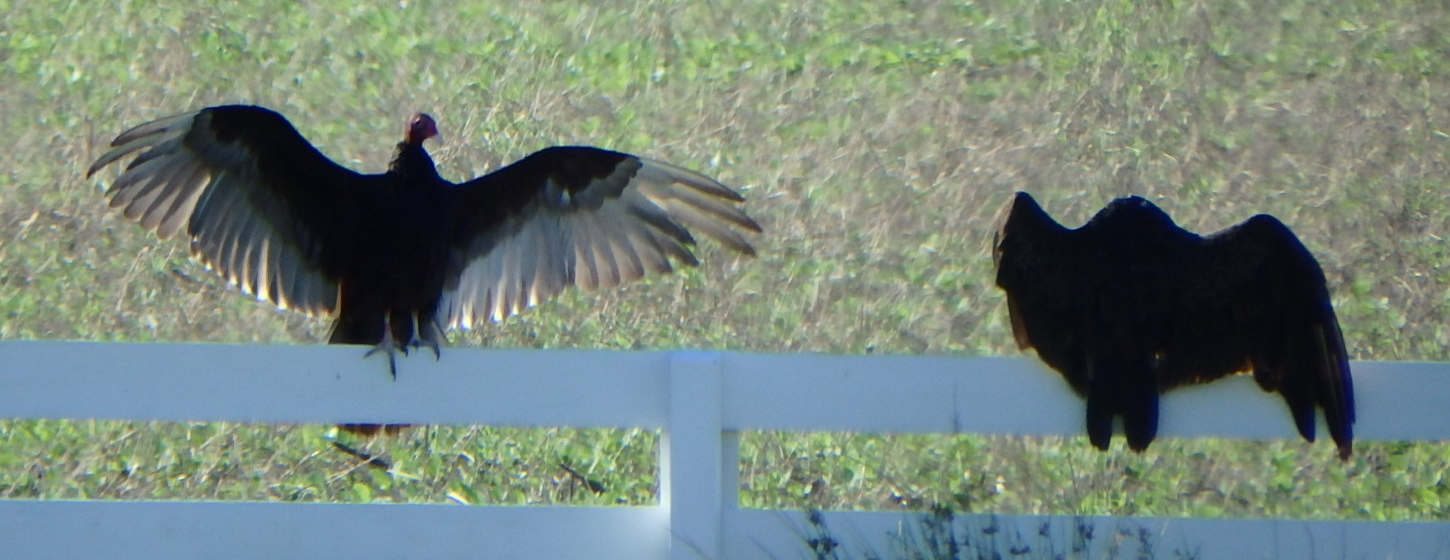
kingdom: Animalia
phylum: Chordata
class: Aves
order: Accipitriformes
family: Cathartidae
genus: Cathartes
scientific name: Cathartes aura
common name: Turkey vulture
